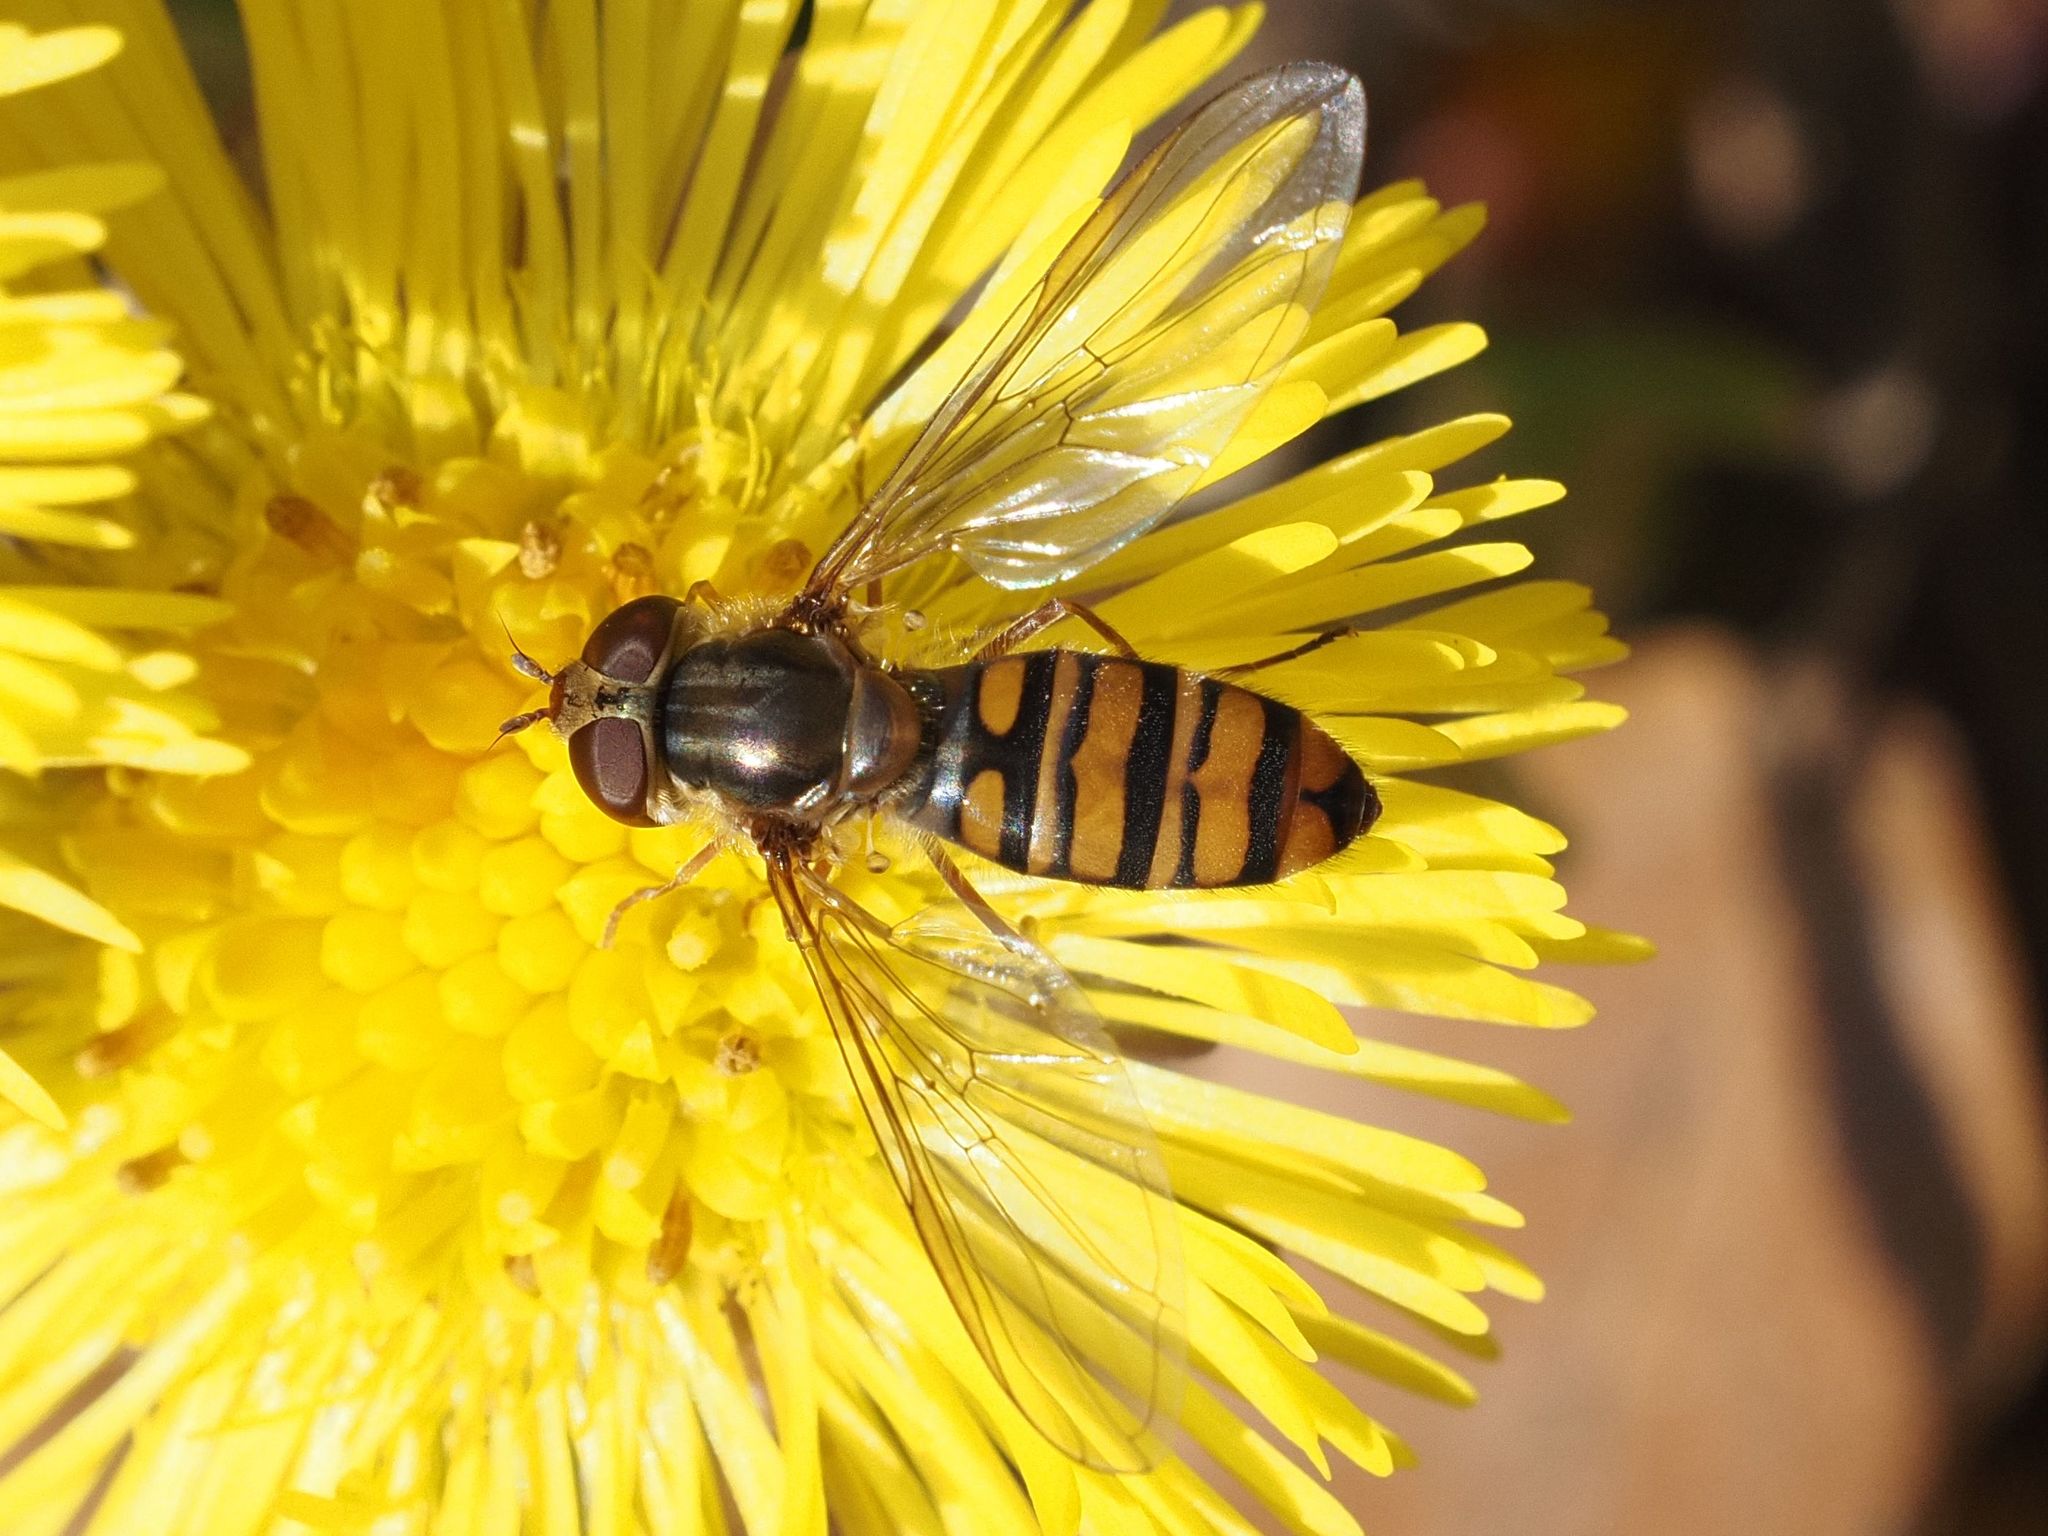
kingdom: Animalia
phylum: Arthropoda
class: Insecta
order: Diptera
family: Syrphidae
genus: Episyrphus
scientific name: Episyrphus balteatus
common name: Marmalade hoverfly
